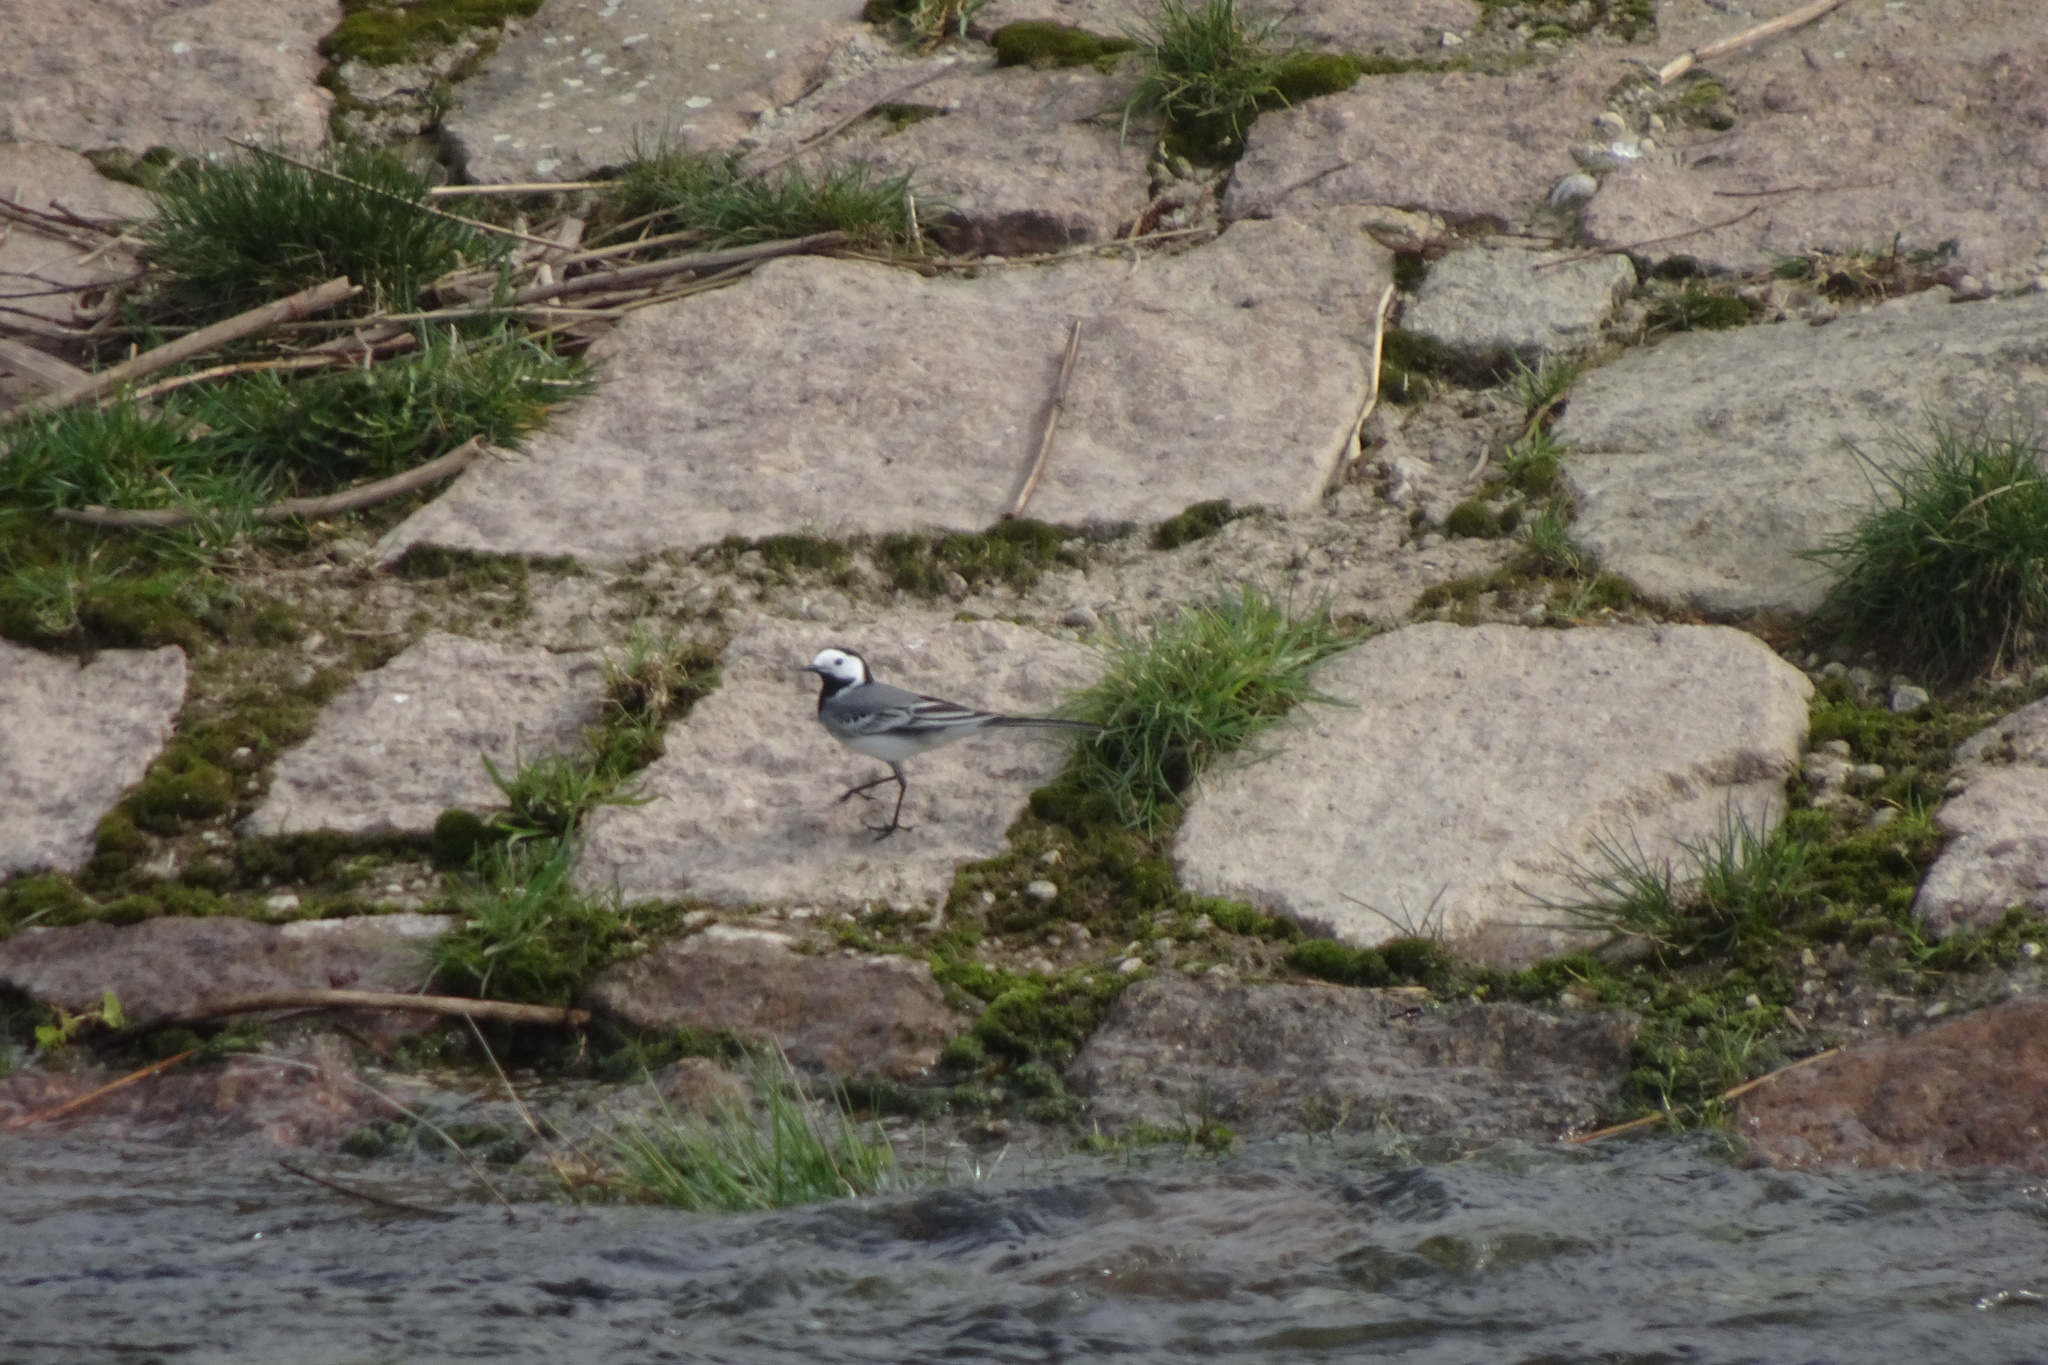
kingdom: Animalia
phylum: Chordata
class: Aves
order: Passeriformes
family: Motacillidae
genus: Motacilla
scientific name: Motacilla alba
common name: White wagtail
